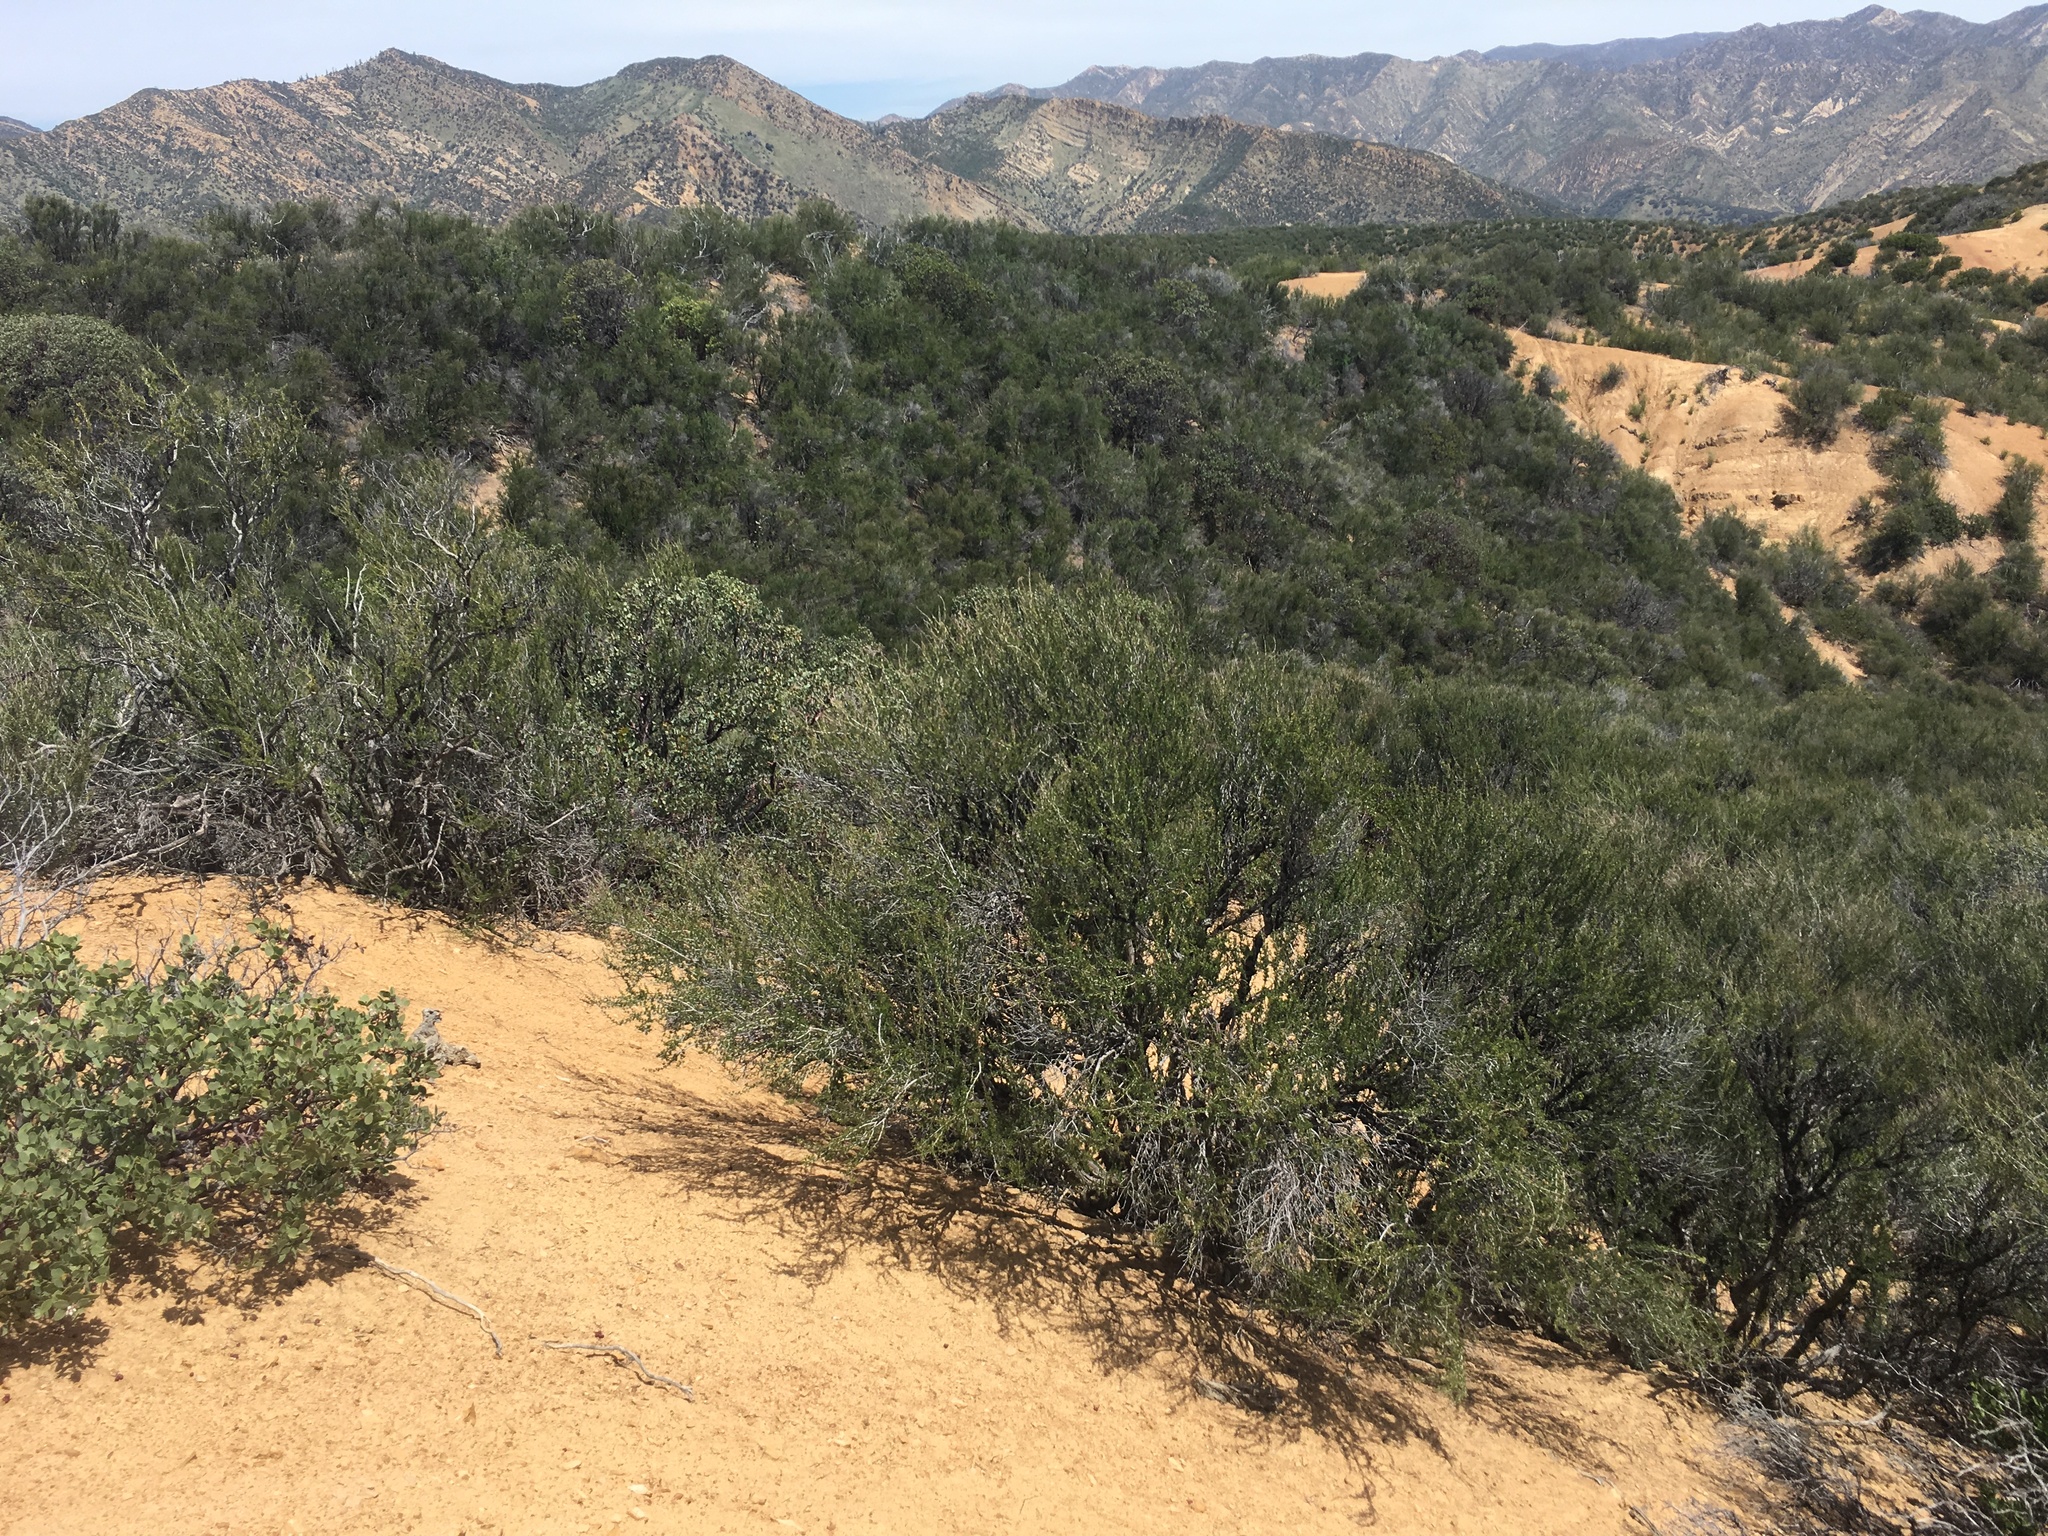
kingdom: Plantae
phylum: Tracheophyta
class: Magnoliopsida
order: Rosales
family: Rosaceae
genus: Adenostoma
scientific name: Adenostoma fasciculatum
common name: Chamise
